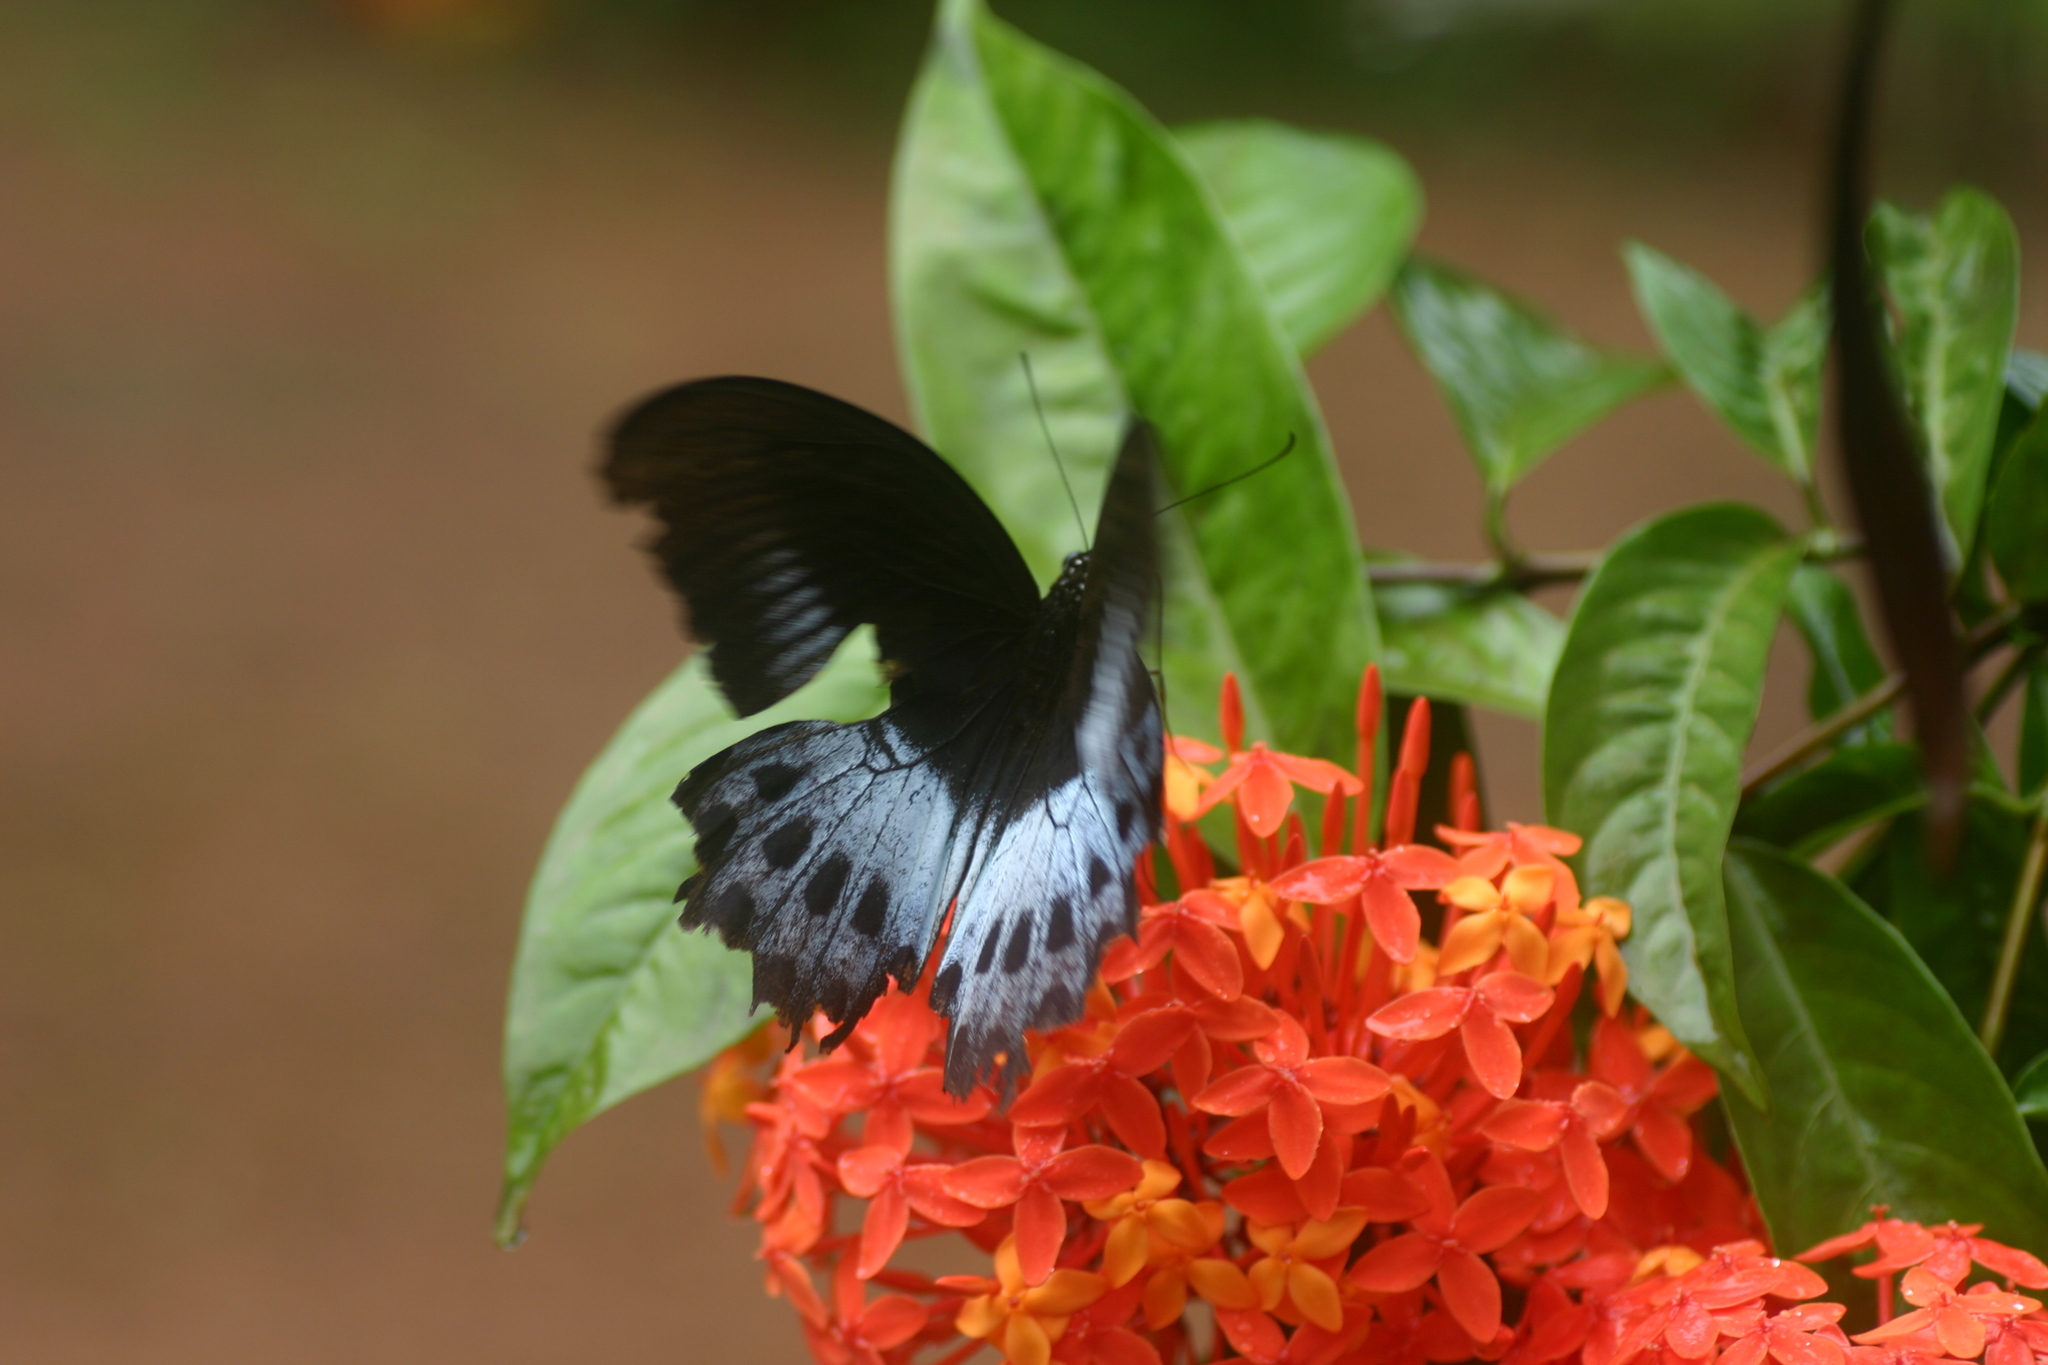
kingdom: Animalia
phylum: Arthropoda
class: Insecta
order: Lepidoptera
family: Papilionidae
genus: Papilio
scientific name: Papilio memnon
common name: Great mormon
